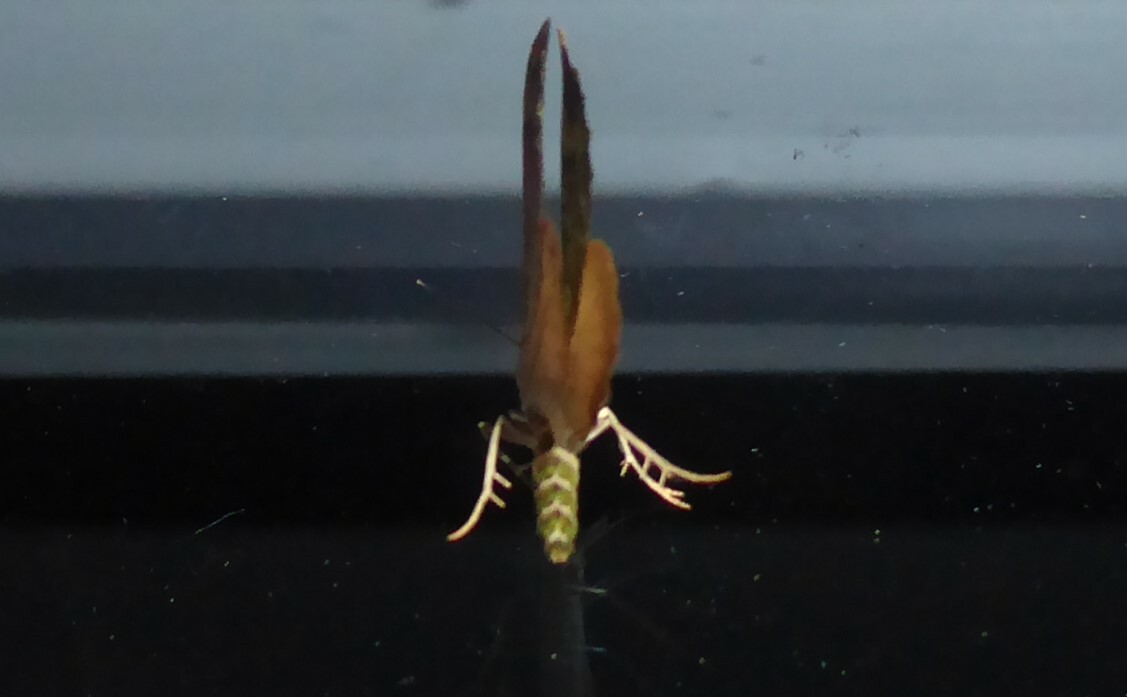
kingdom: Animalia
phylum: Arthropoda
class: Insecta
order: Lepidoptera
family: Geometridae
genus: Austrocidaria
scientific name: Austrocidaria similata
